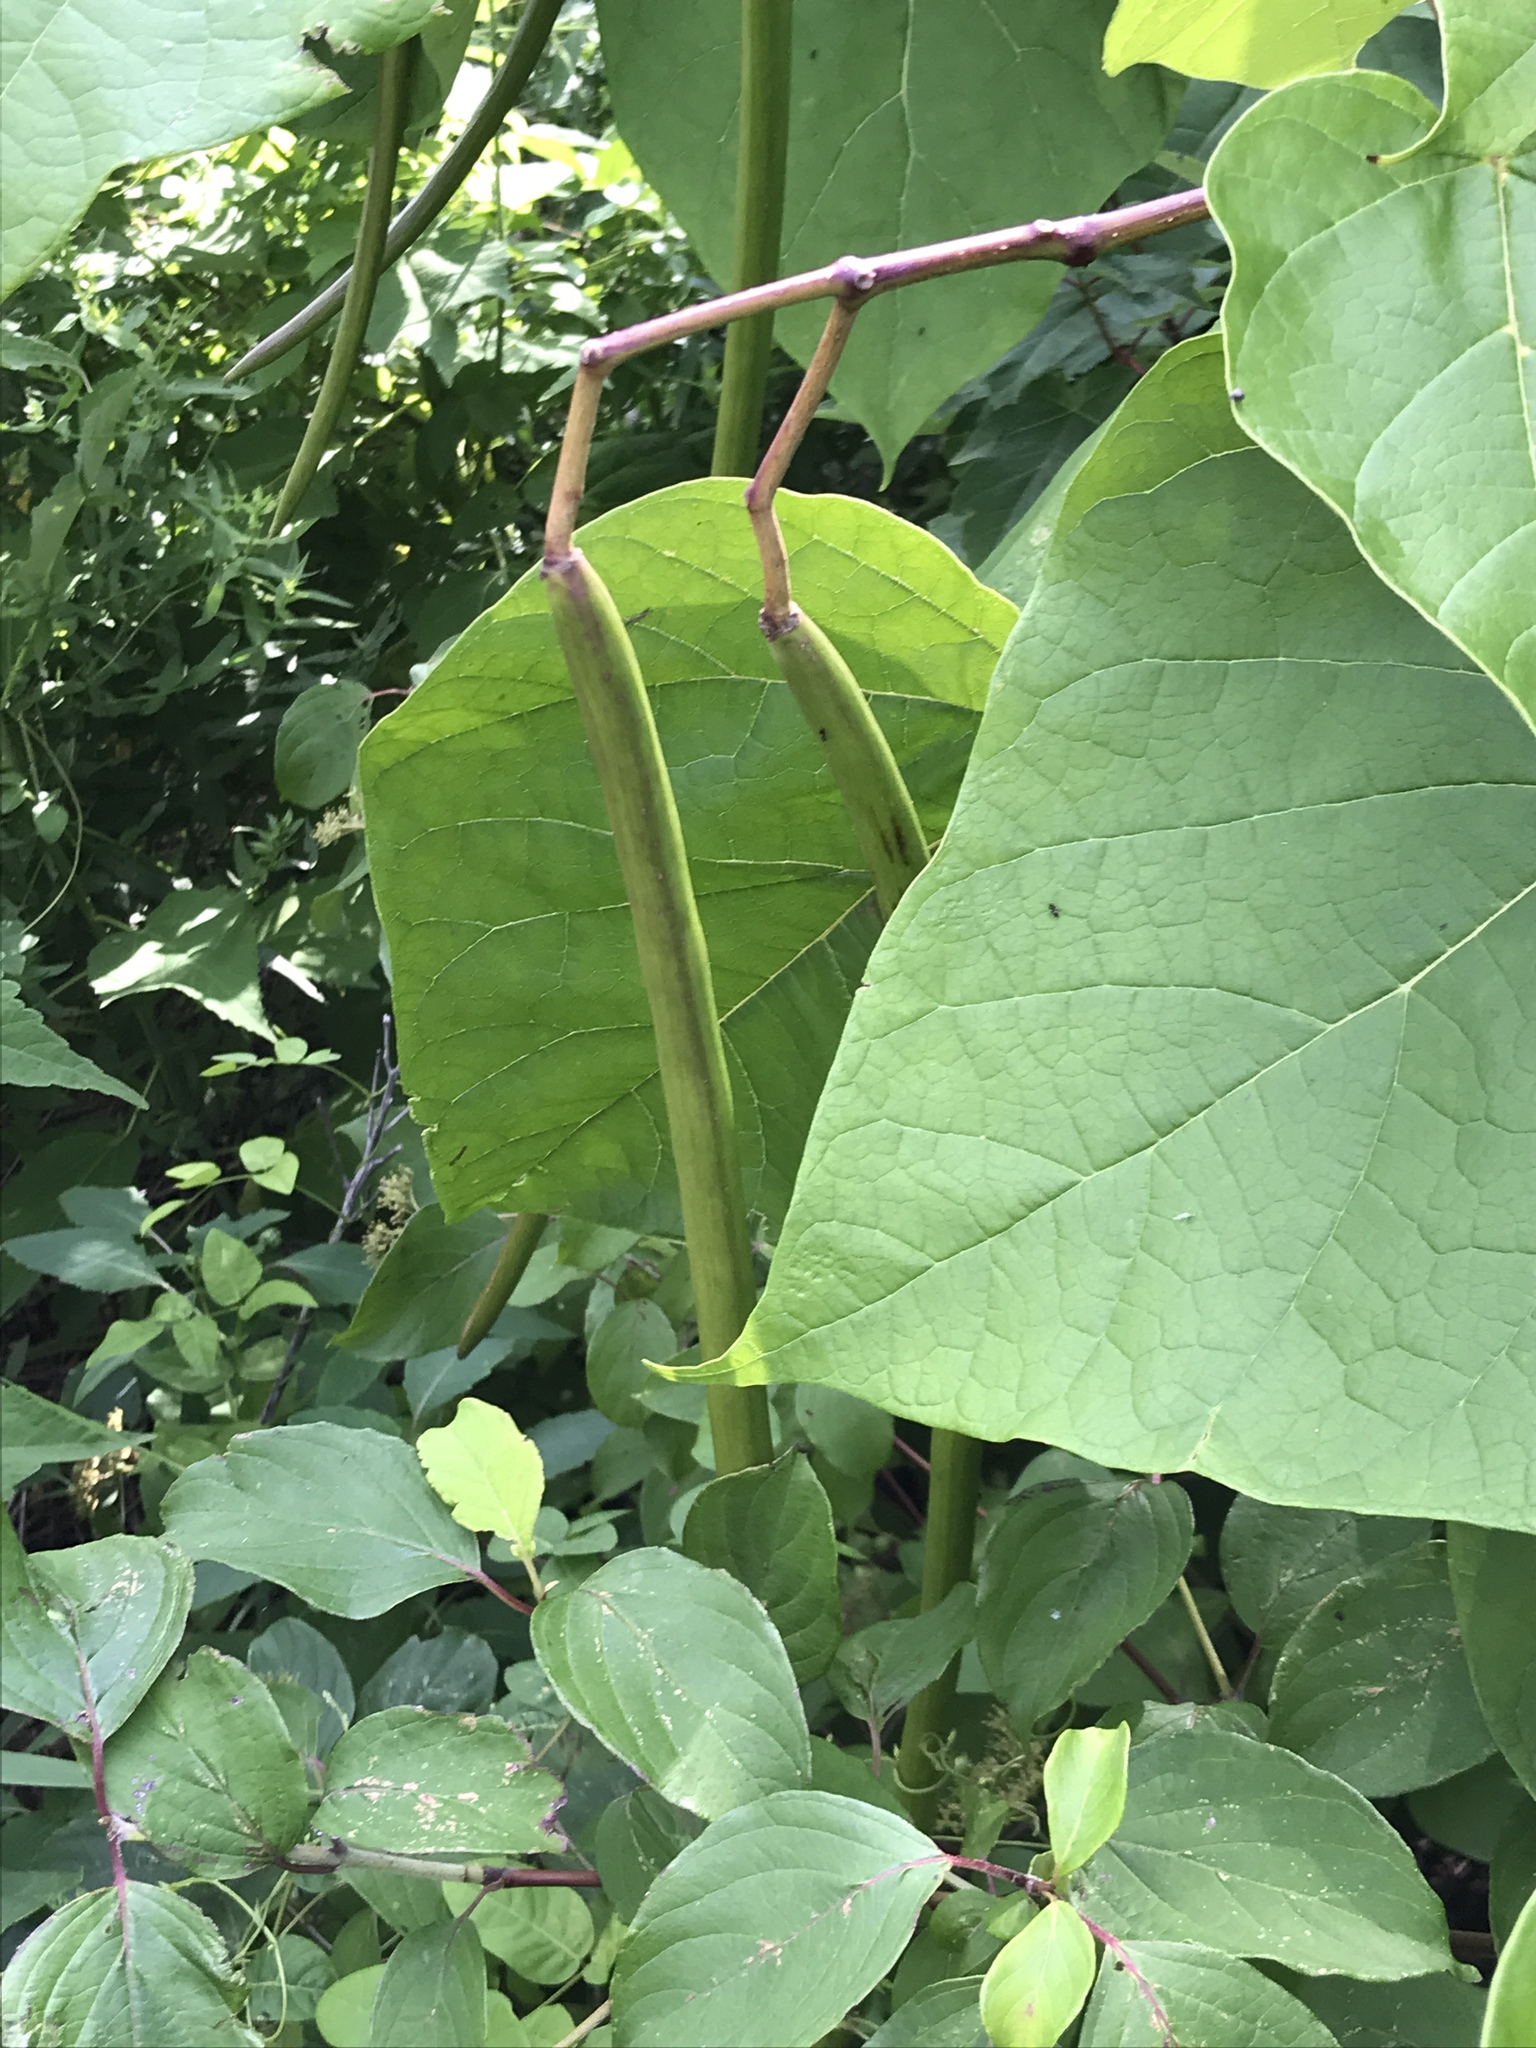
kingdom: Plantae
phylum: Tracheophyta
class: Magnoliopsida
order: Lamiales
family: Bignoniaceae
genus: Catalpa
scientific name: Catalpa speciosa
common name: Northern catalpa
